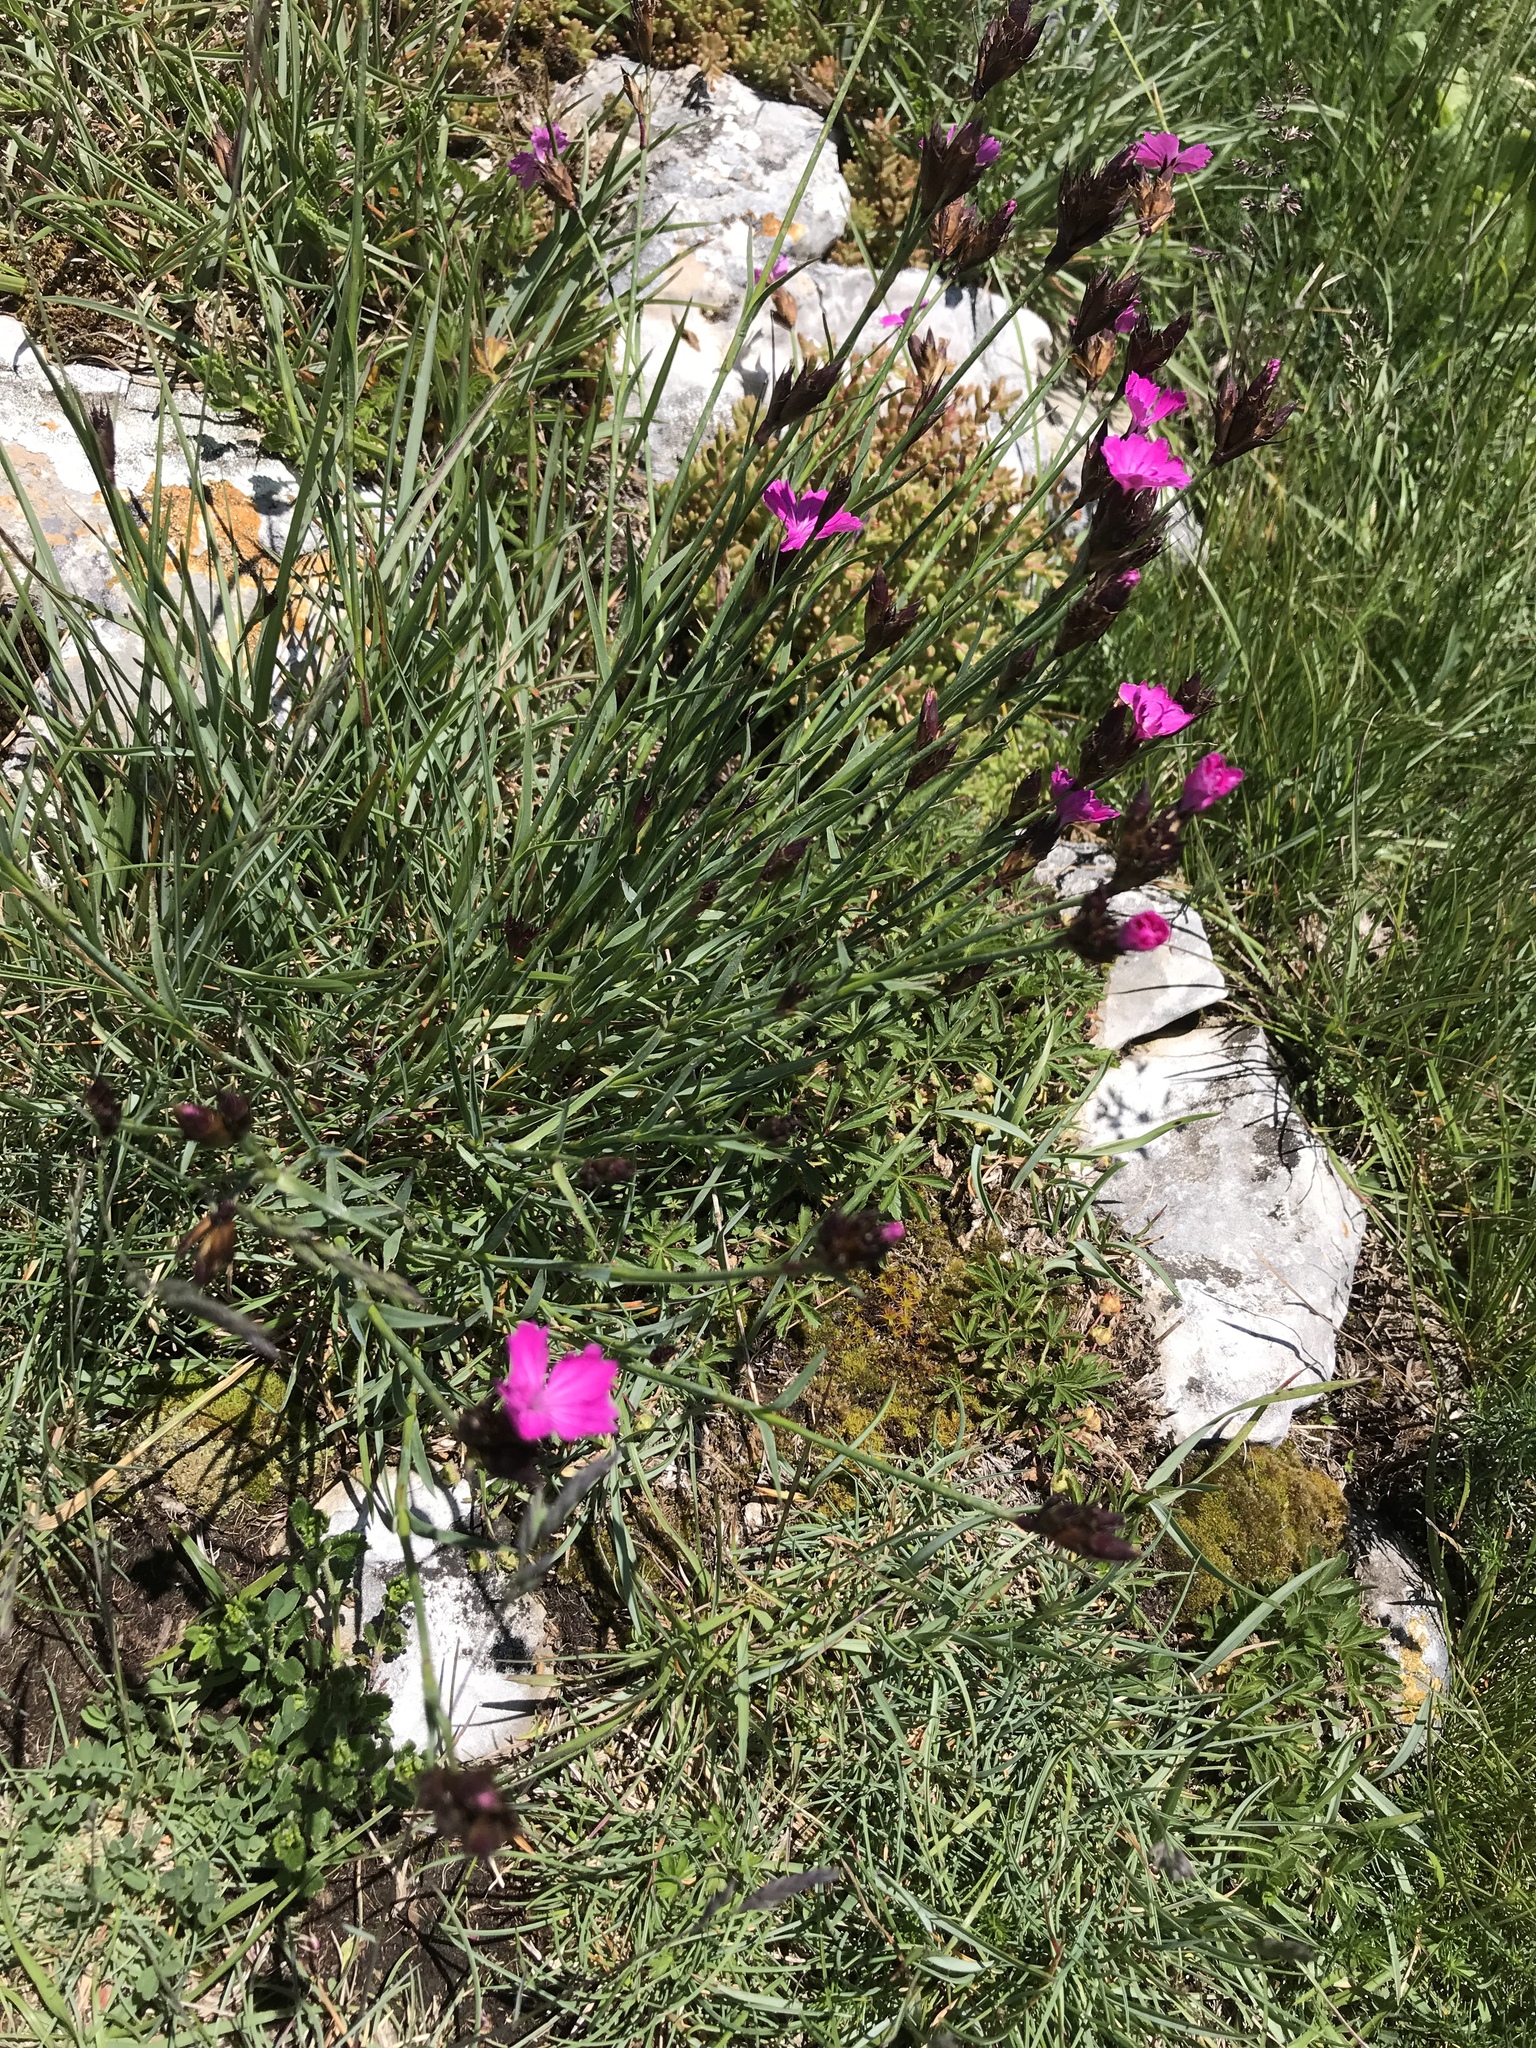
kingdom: Plantae
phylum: Tracheophyta
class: Magnoliopsida
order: Caryophyllales
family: Caryophyllaceae
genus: Dianthus
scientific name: Dianthus carthusianorum
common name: Carthusian pink
